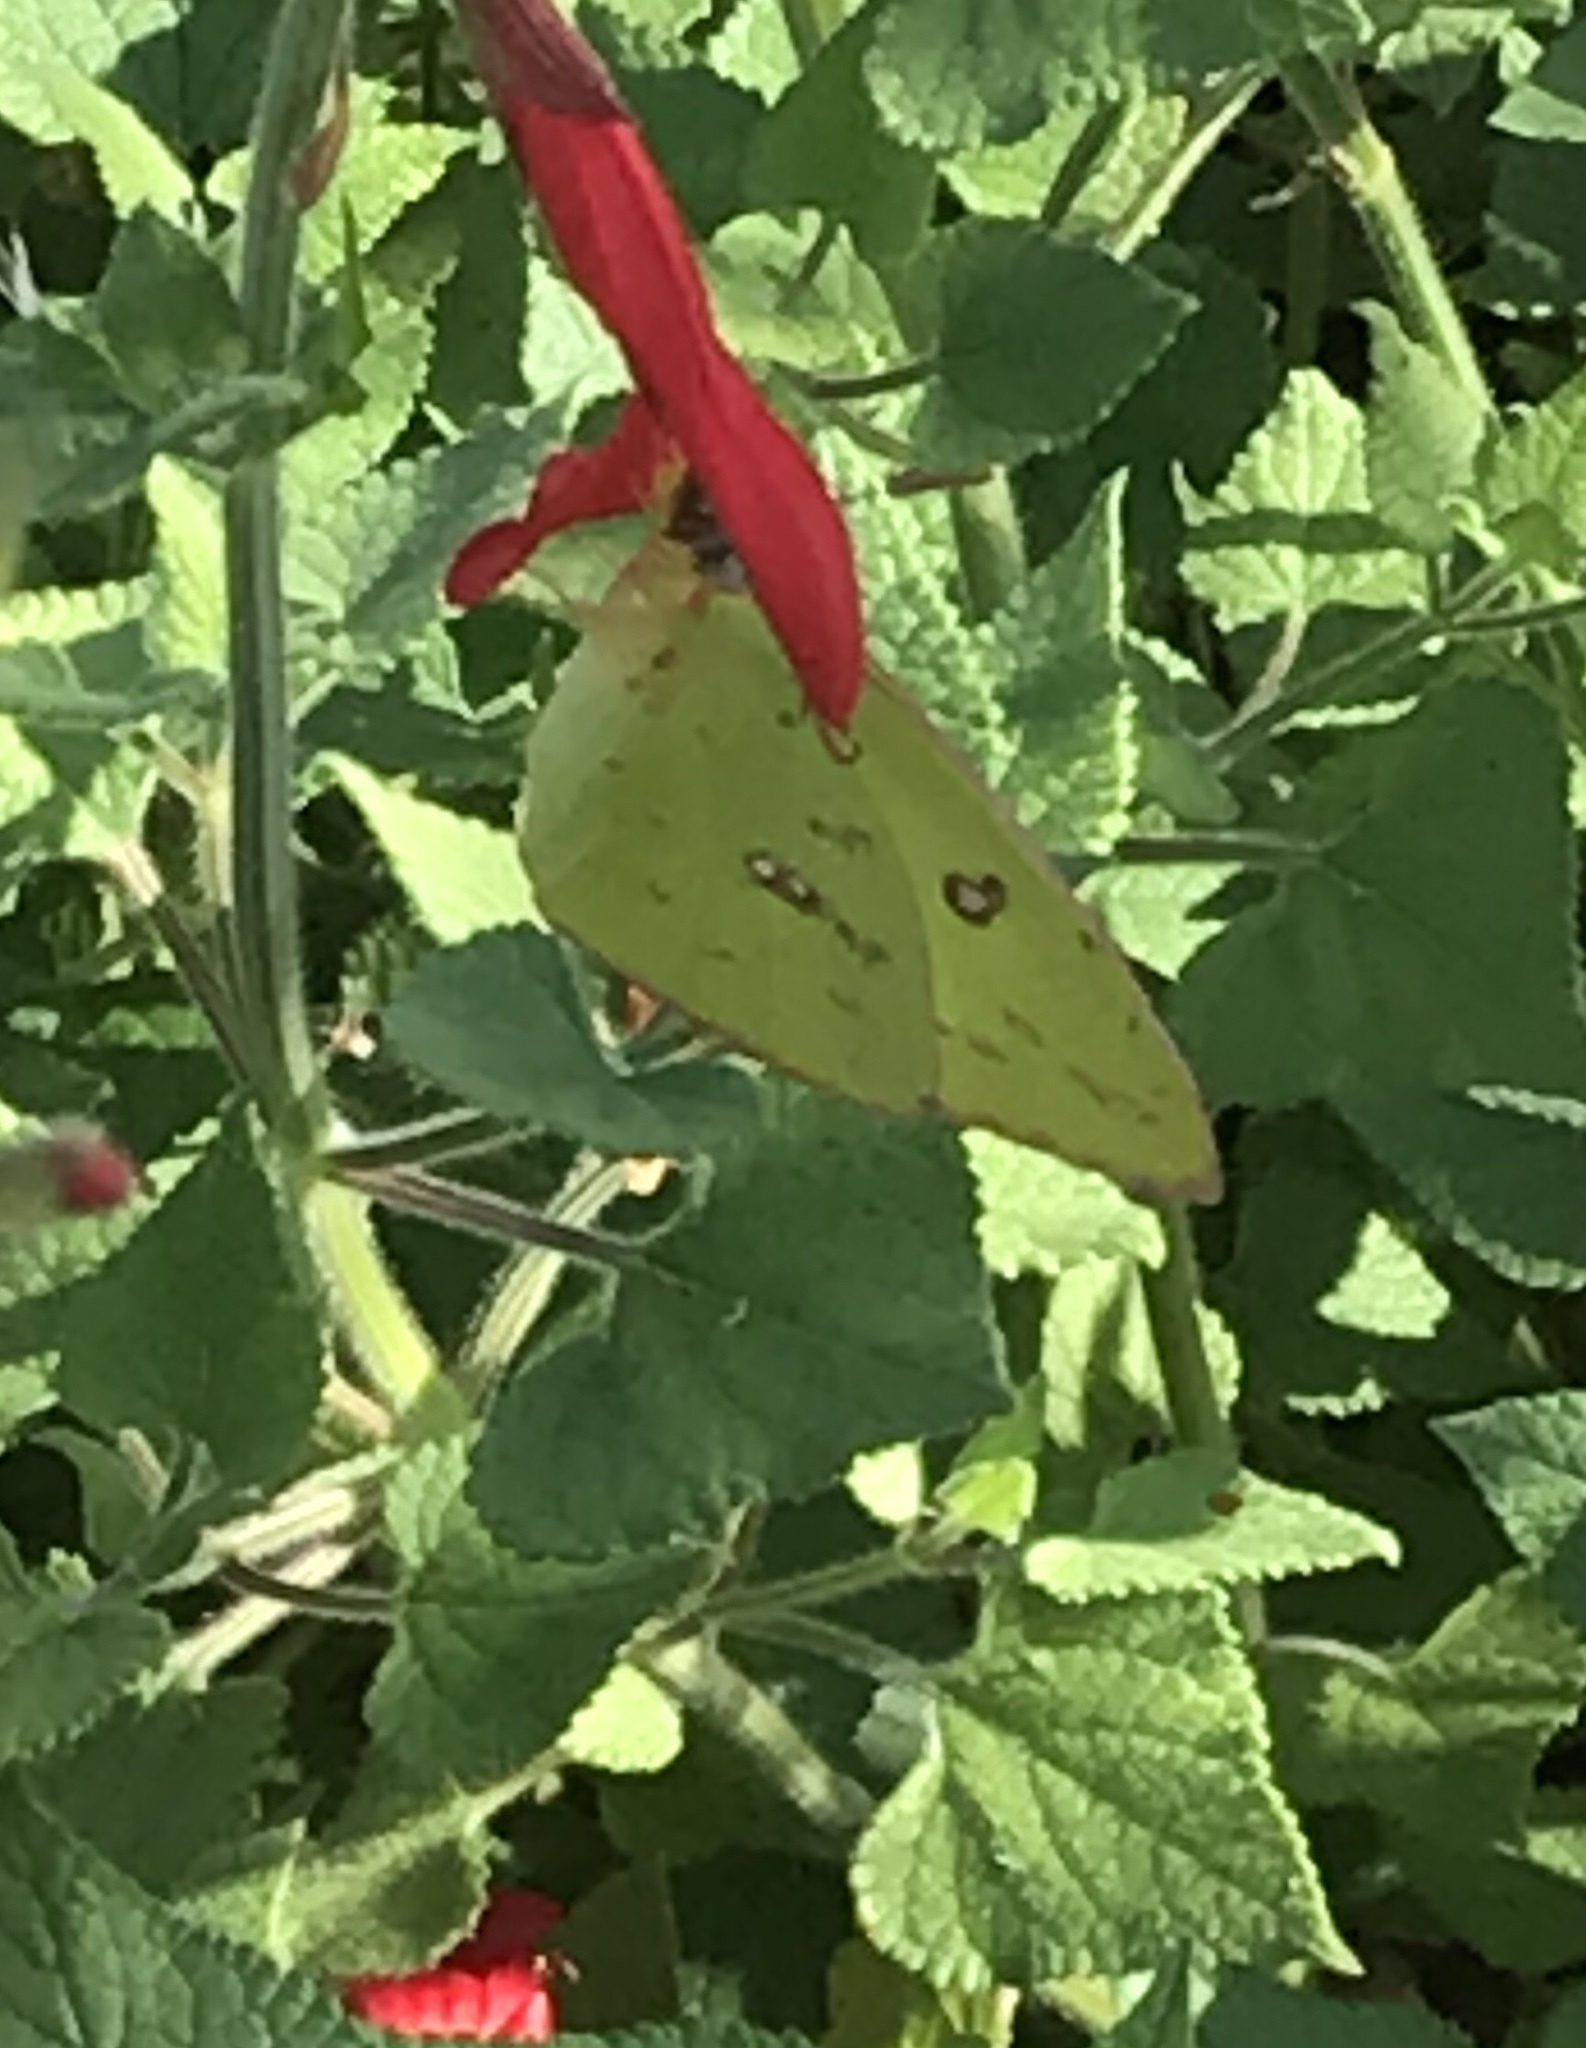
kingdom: Animalia
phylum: Arthropoda
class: Insecta
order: Lepidoptera
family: Pieridae
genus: Phoebis
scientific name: Phoebis sennae
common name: Cloudless sulphur
